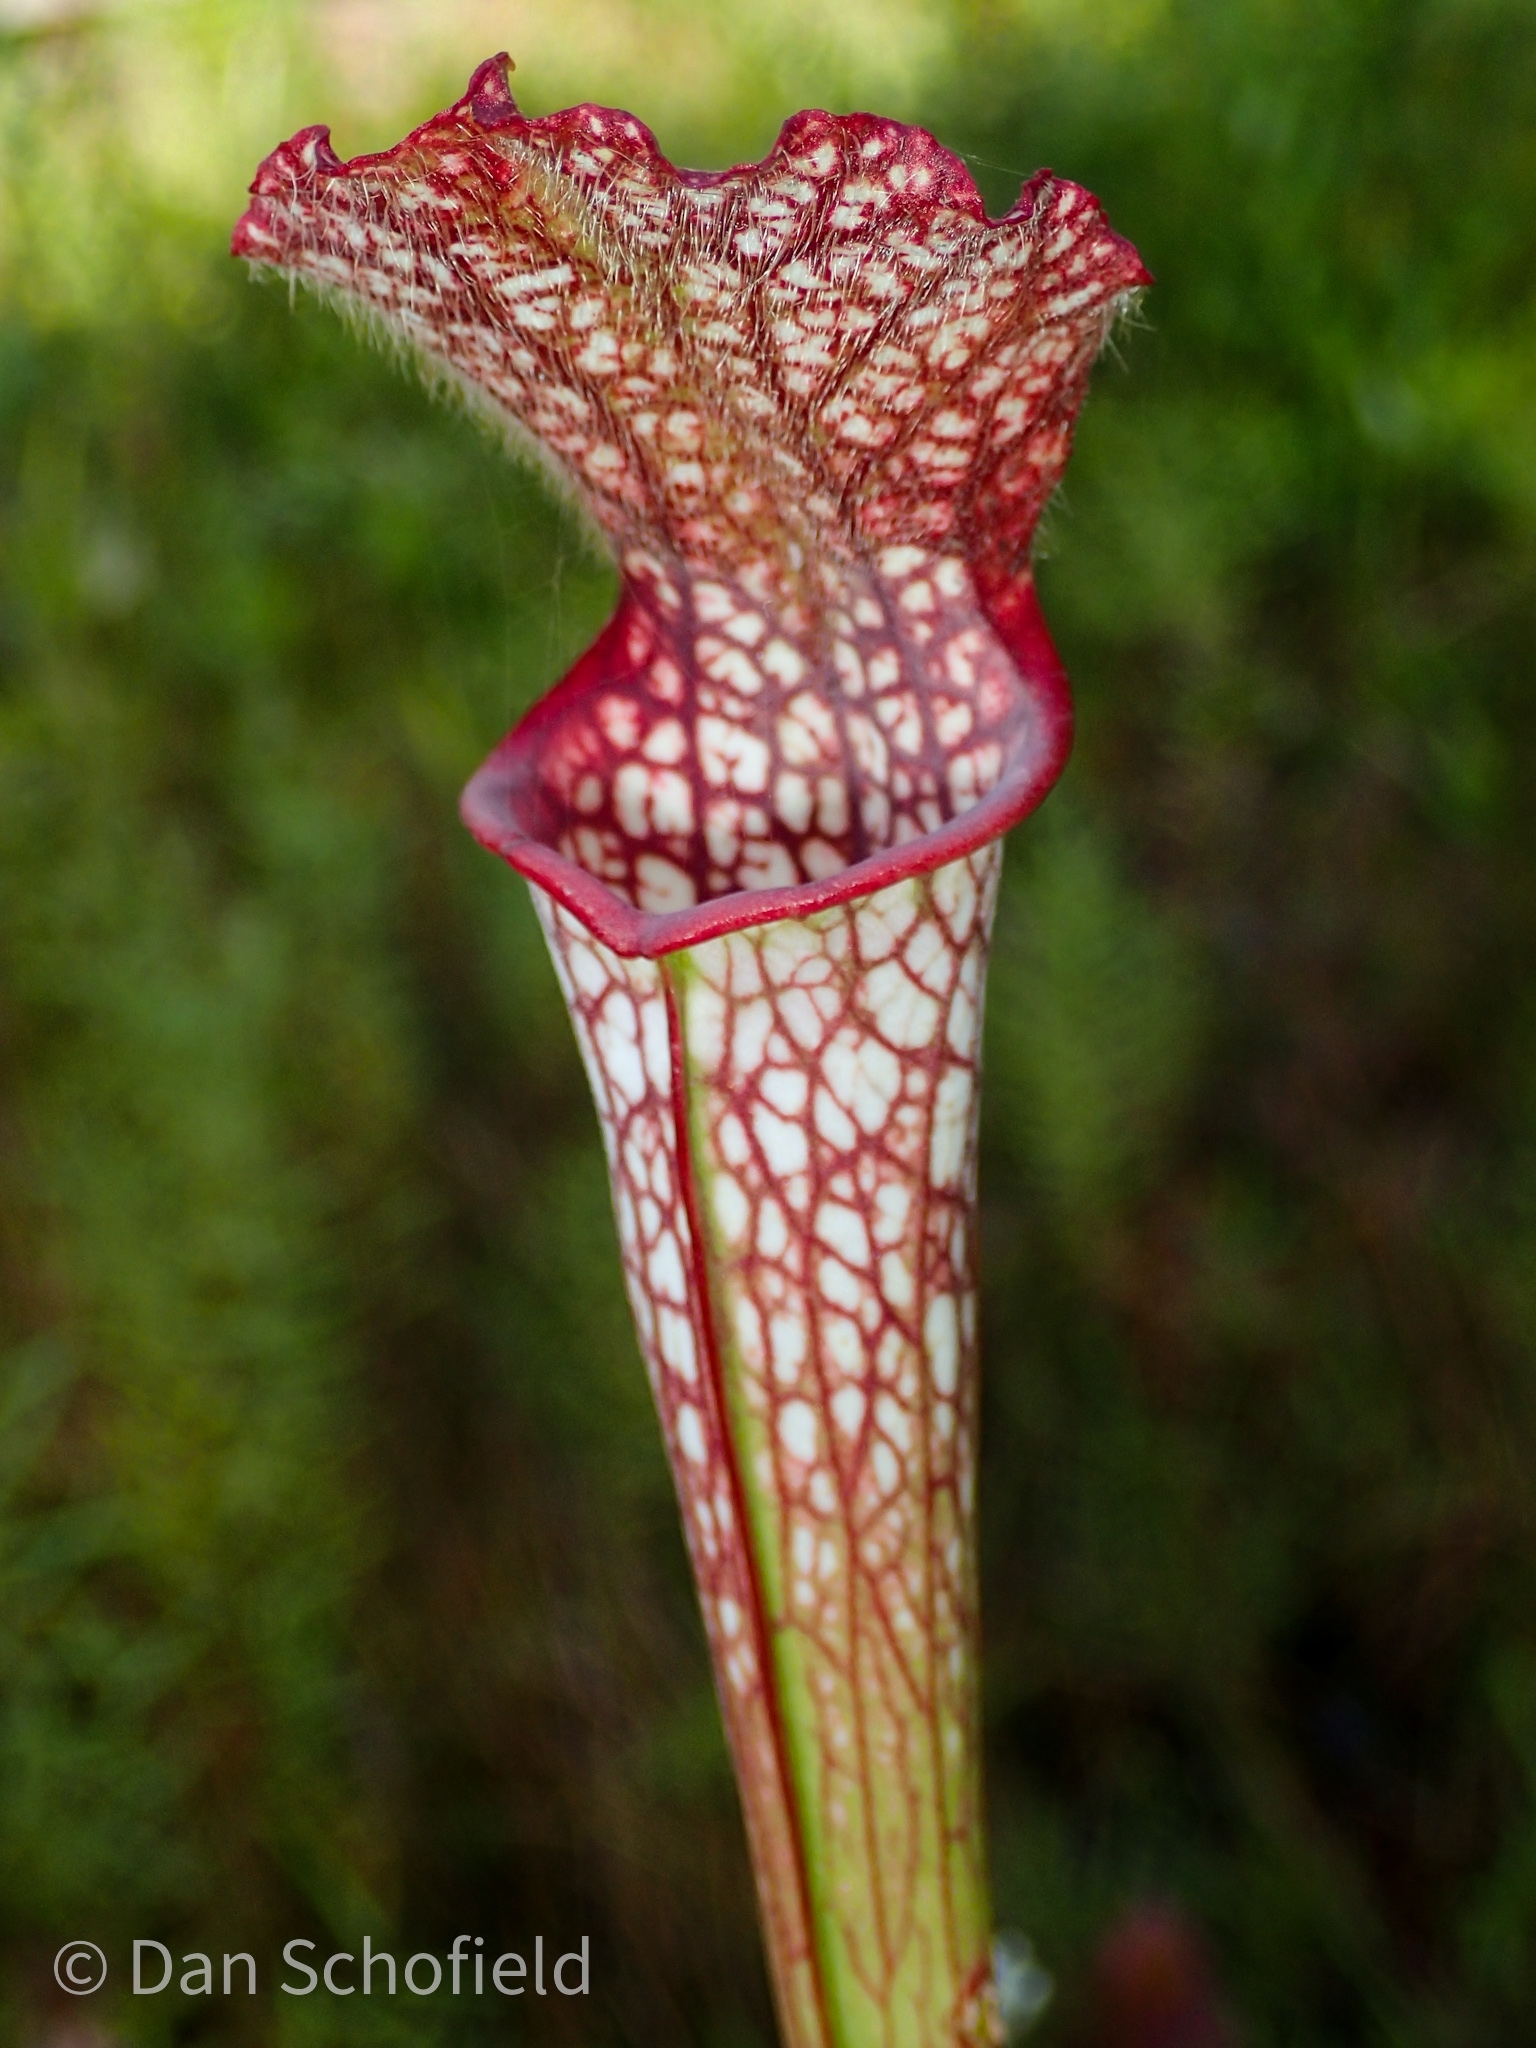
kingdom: Plantae
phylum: Tracheophyta
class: Magnoliopsida
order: Ericales
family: Sarraceniaceae
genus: Sarracenia
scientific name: Sarracenia leucophylla
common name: Purple trumpetleaf
